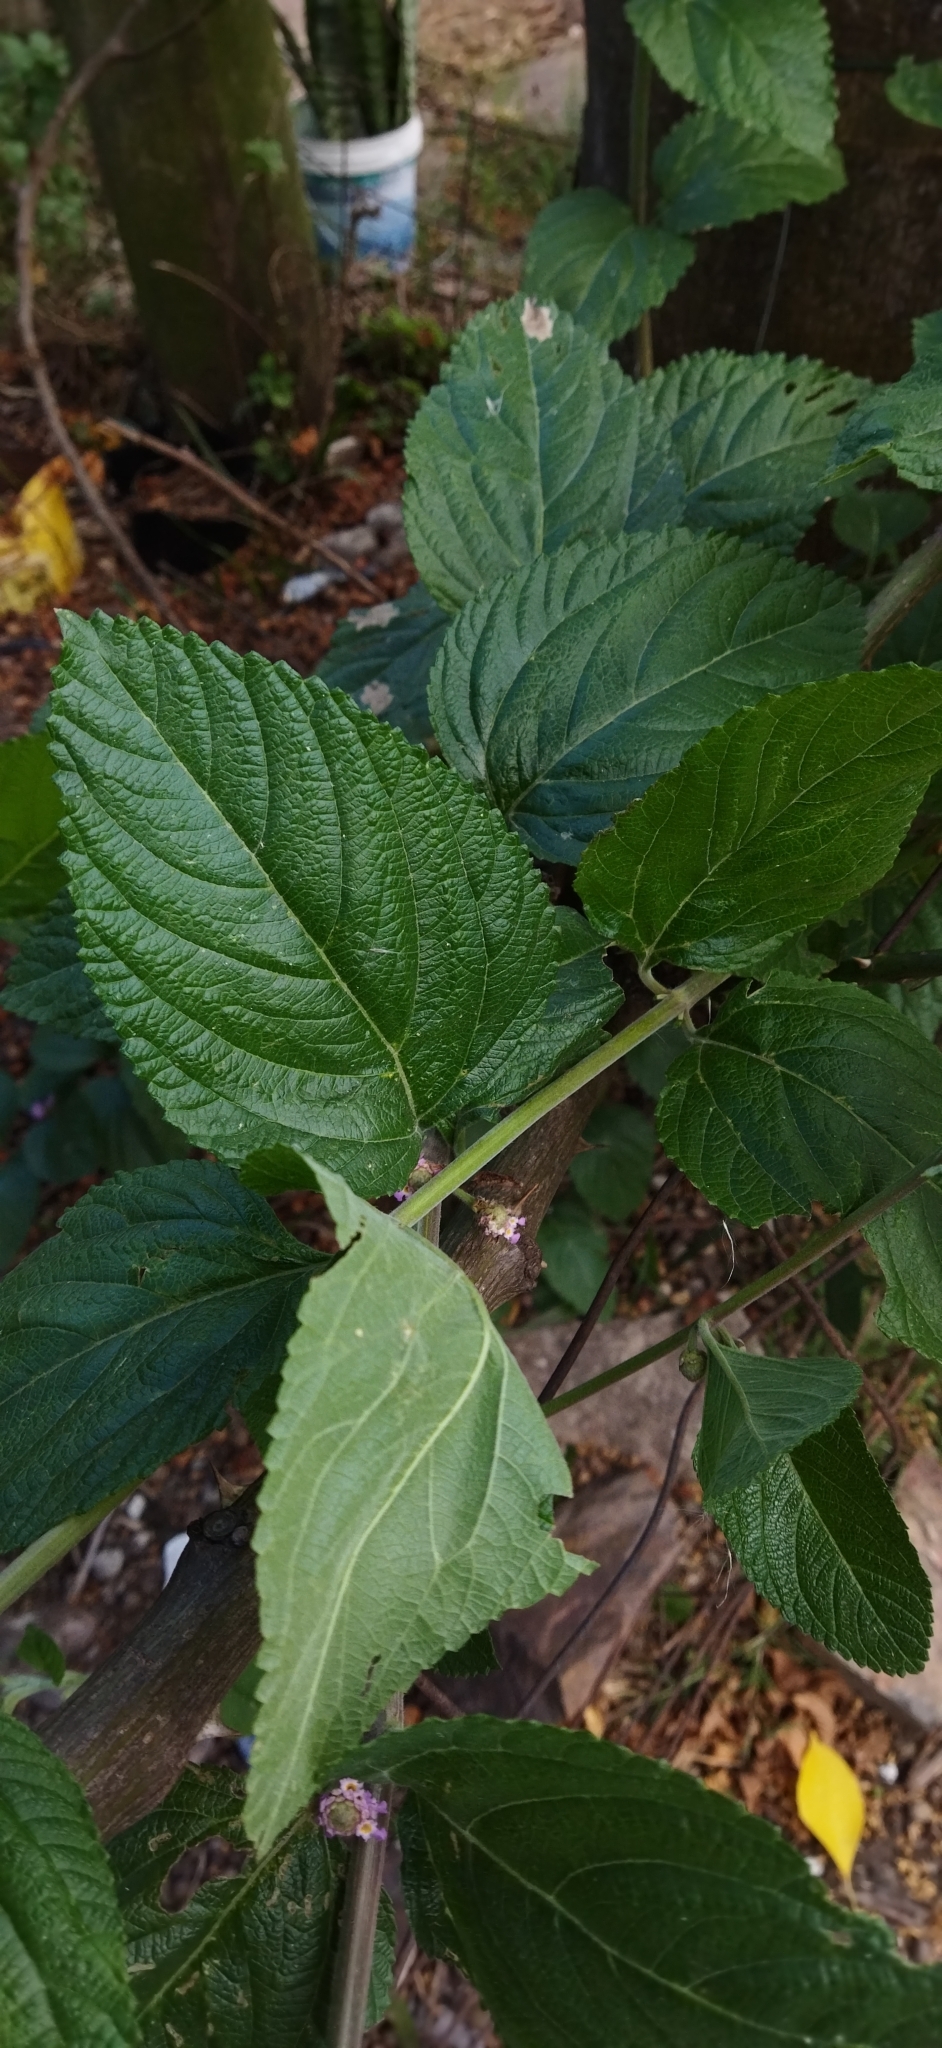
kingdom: Plantae
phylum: Tracheophyta
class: Magnoliopsida
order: Lamiales
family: Verbenaceae
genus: Lippia
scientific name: Lippia alba
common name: Bushy matgrass
